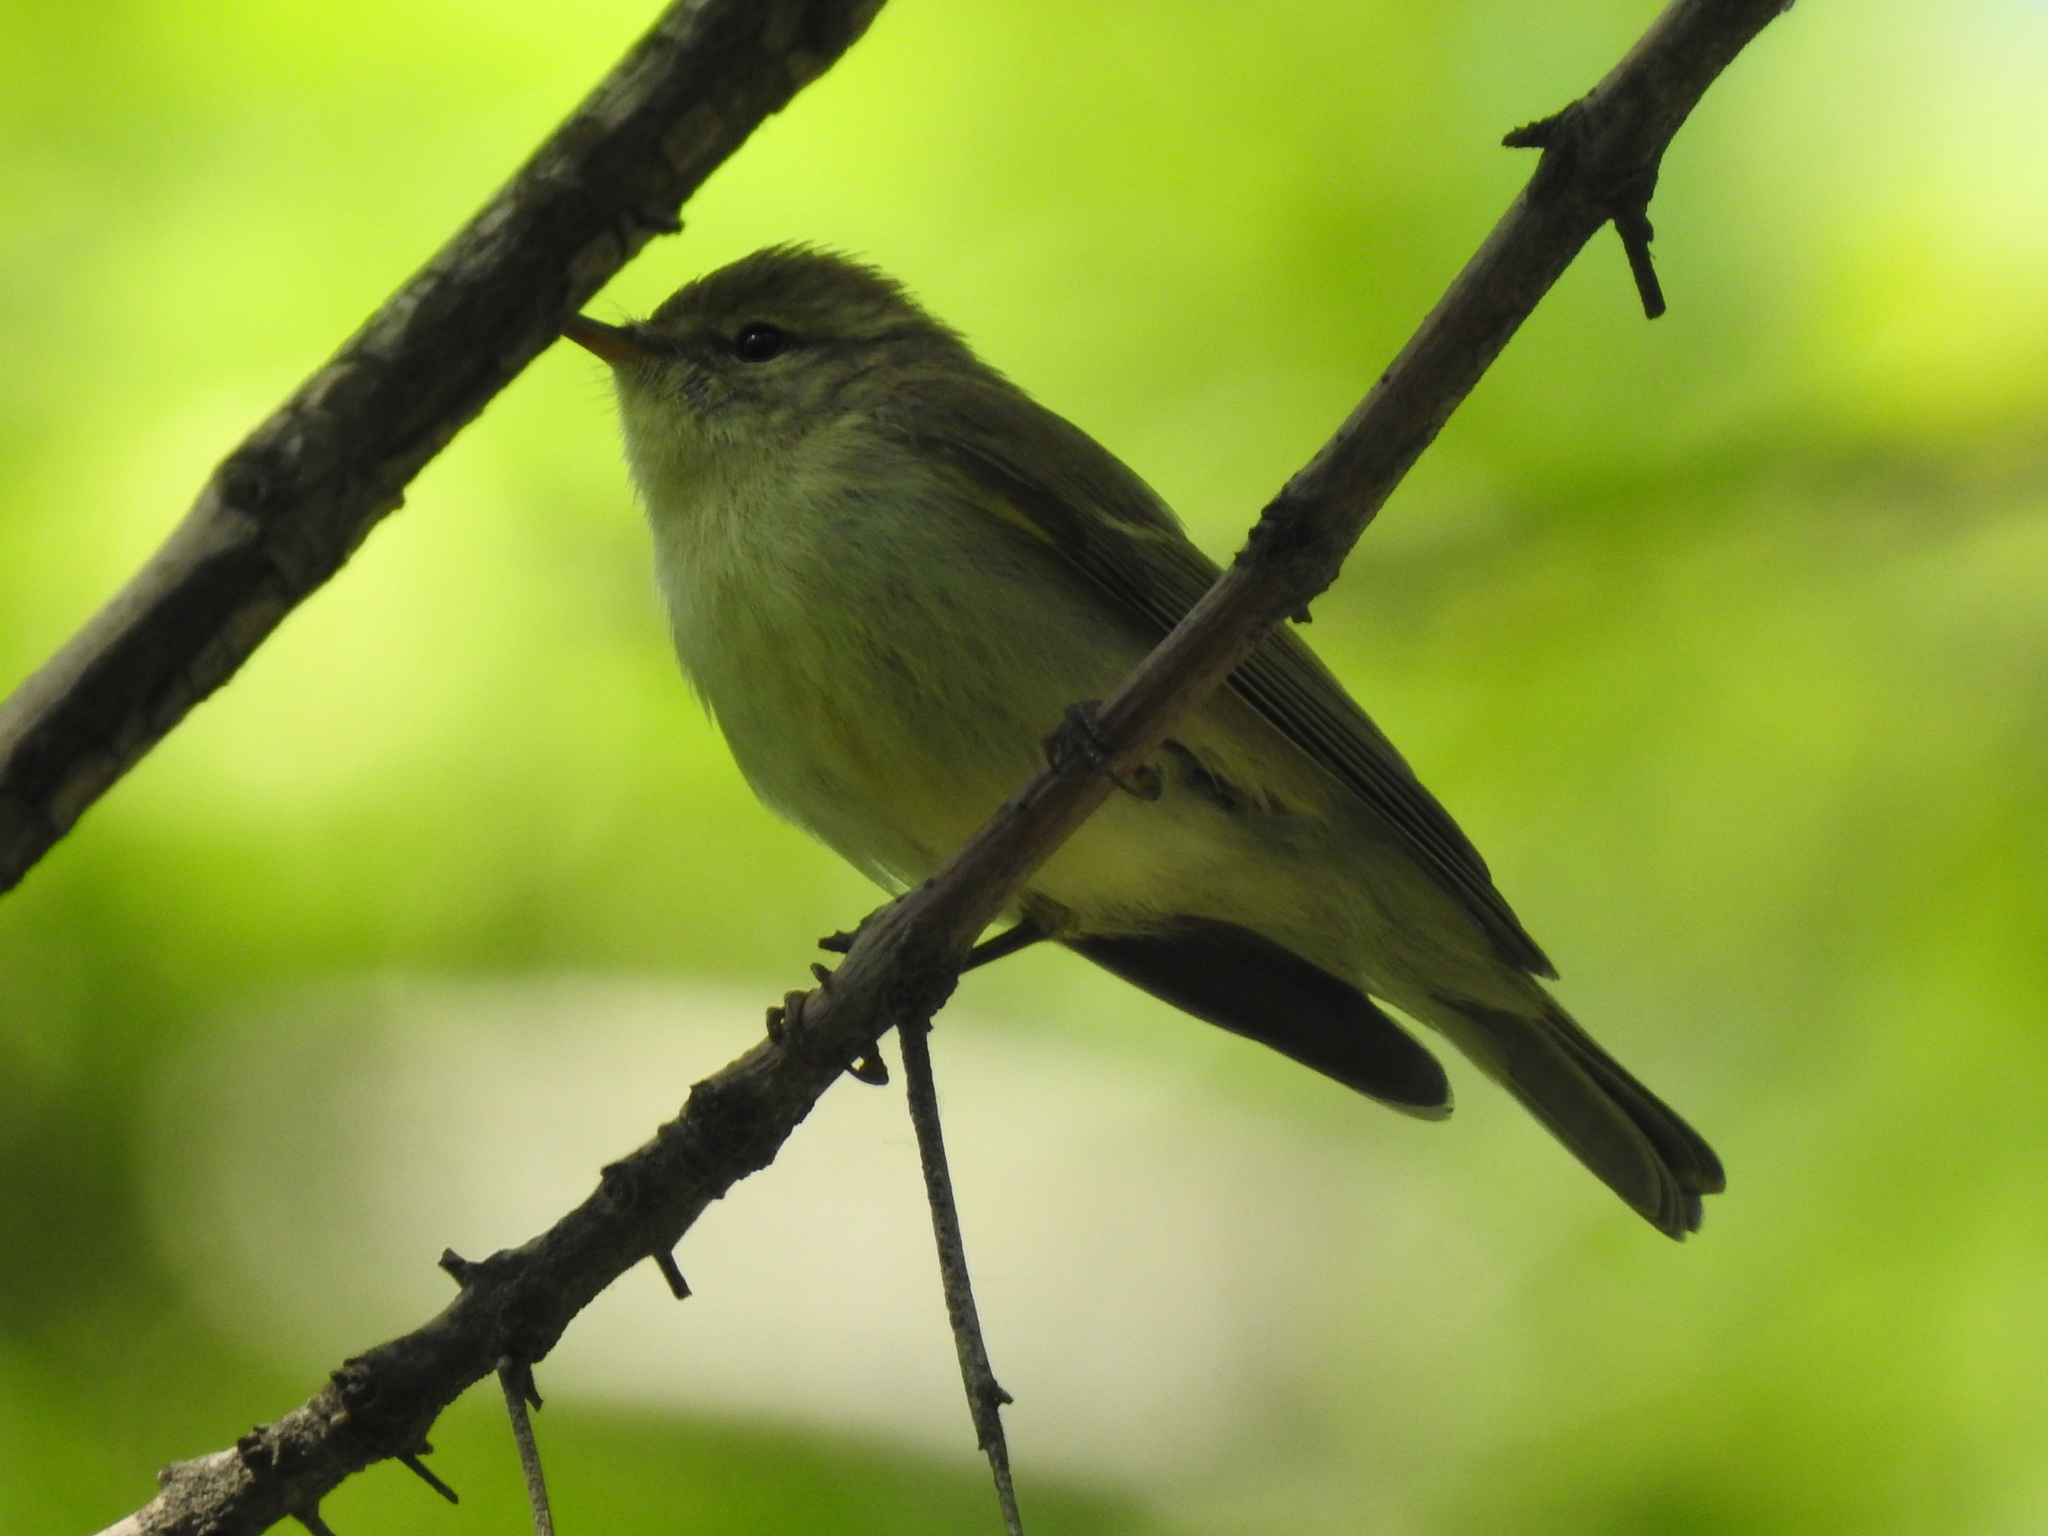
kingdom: Animalia
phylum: Chordata
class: Aves
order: Passeriformes
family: Phylloscopidae
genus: Phylloscopus
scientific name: Phylloscopus trochiloides
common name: Greenish warbler
